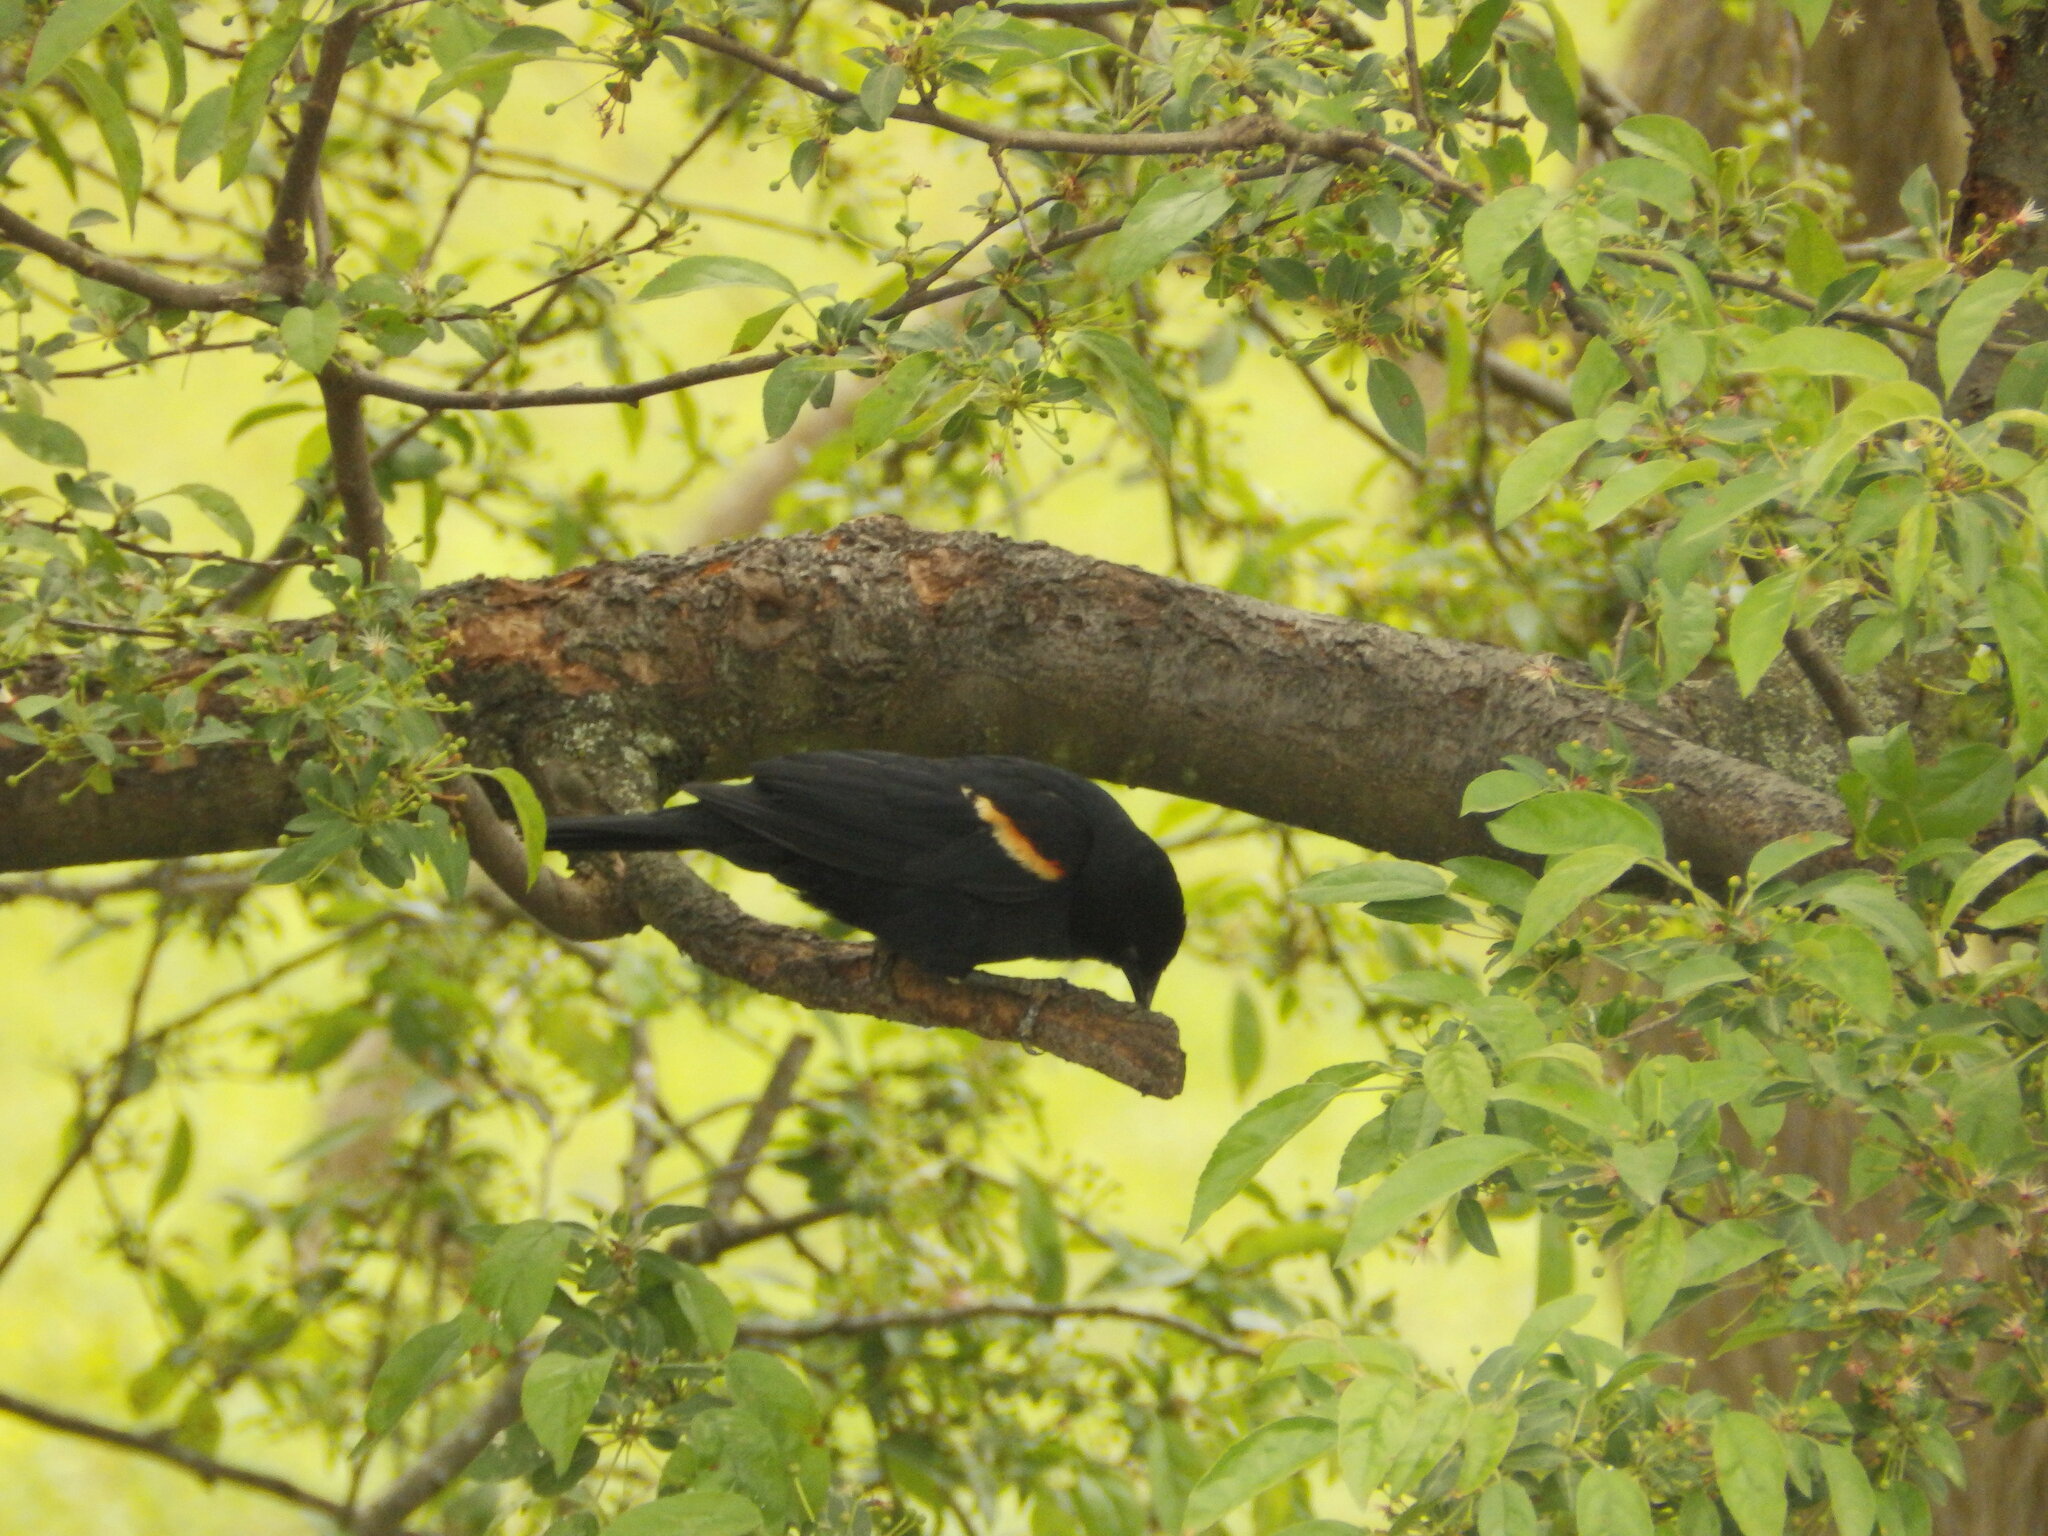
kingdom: Animalia
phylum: Chordata
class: Aves
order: Passeriformes
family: Icteridae
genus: Agelaius
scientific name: Agelaius phoeniceus
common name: Red-winged blackbird
